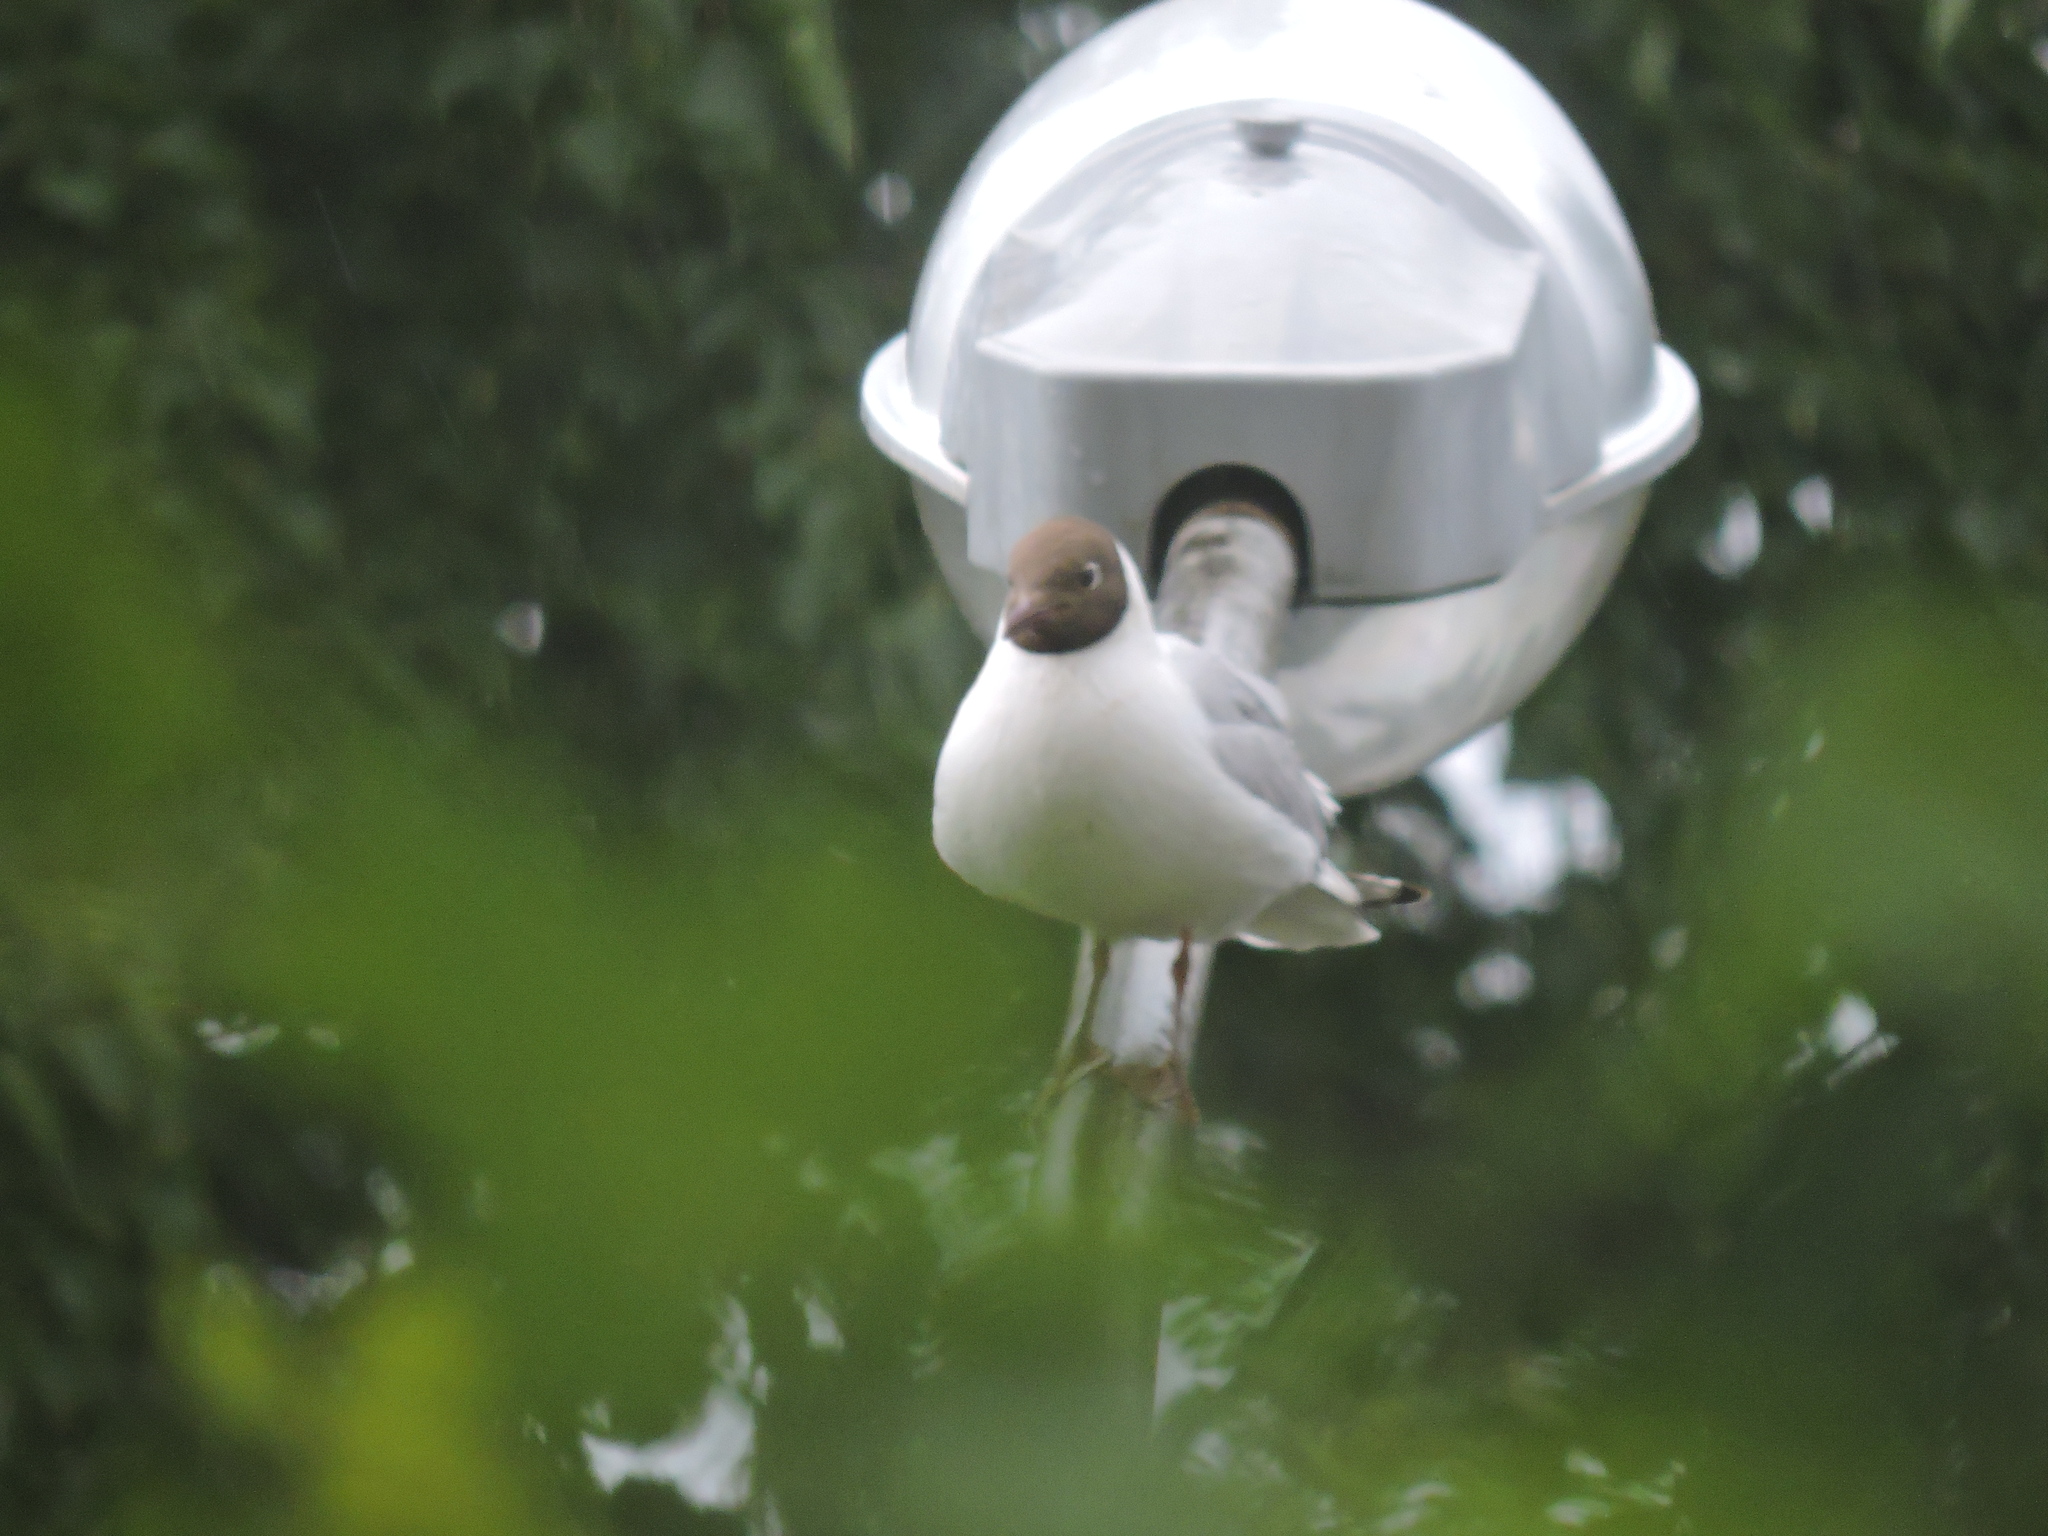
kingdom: Animalia
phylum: Chordata
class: Aves
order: Charadriiformes
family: Laridae
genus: Chroicocephalus
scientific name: Chroicocephalus ridibundus
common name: Black-headed gull
